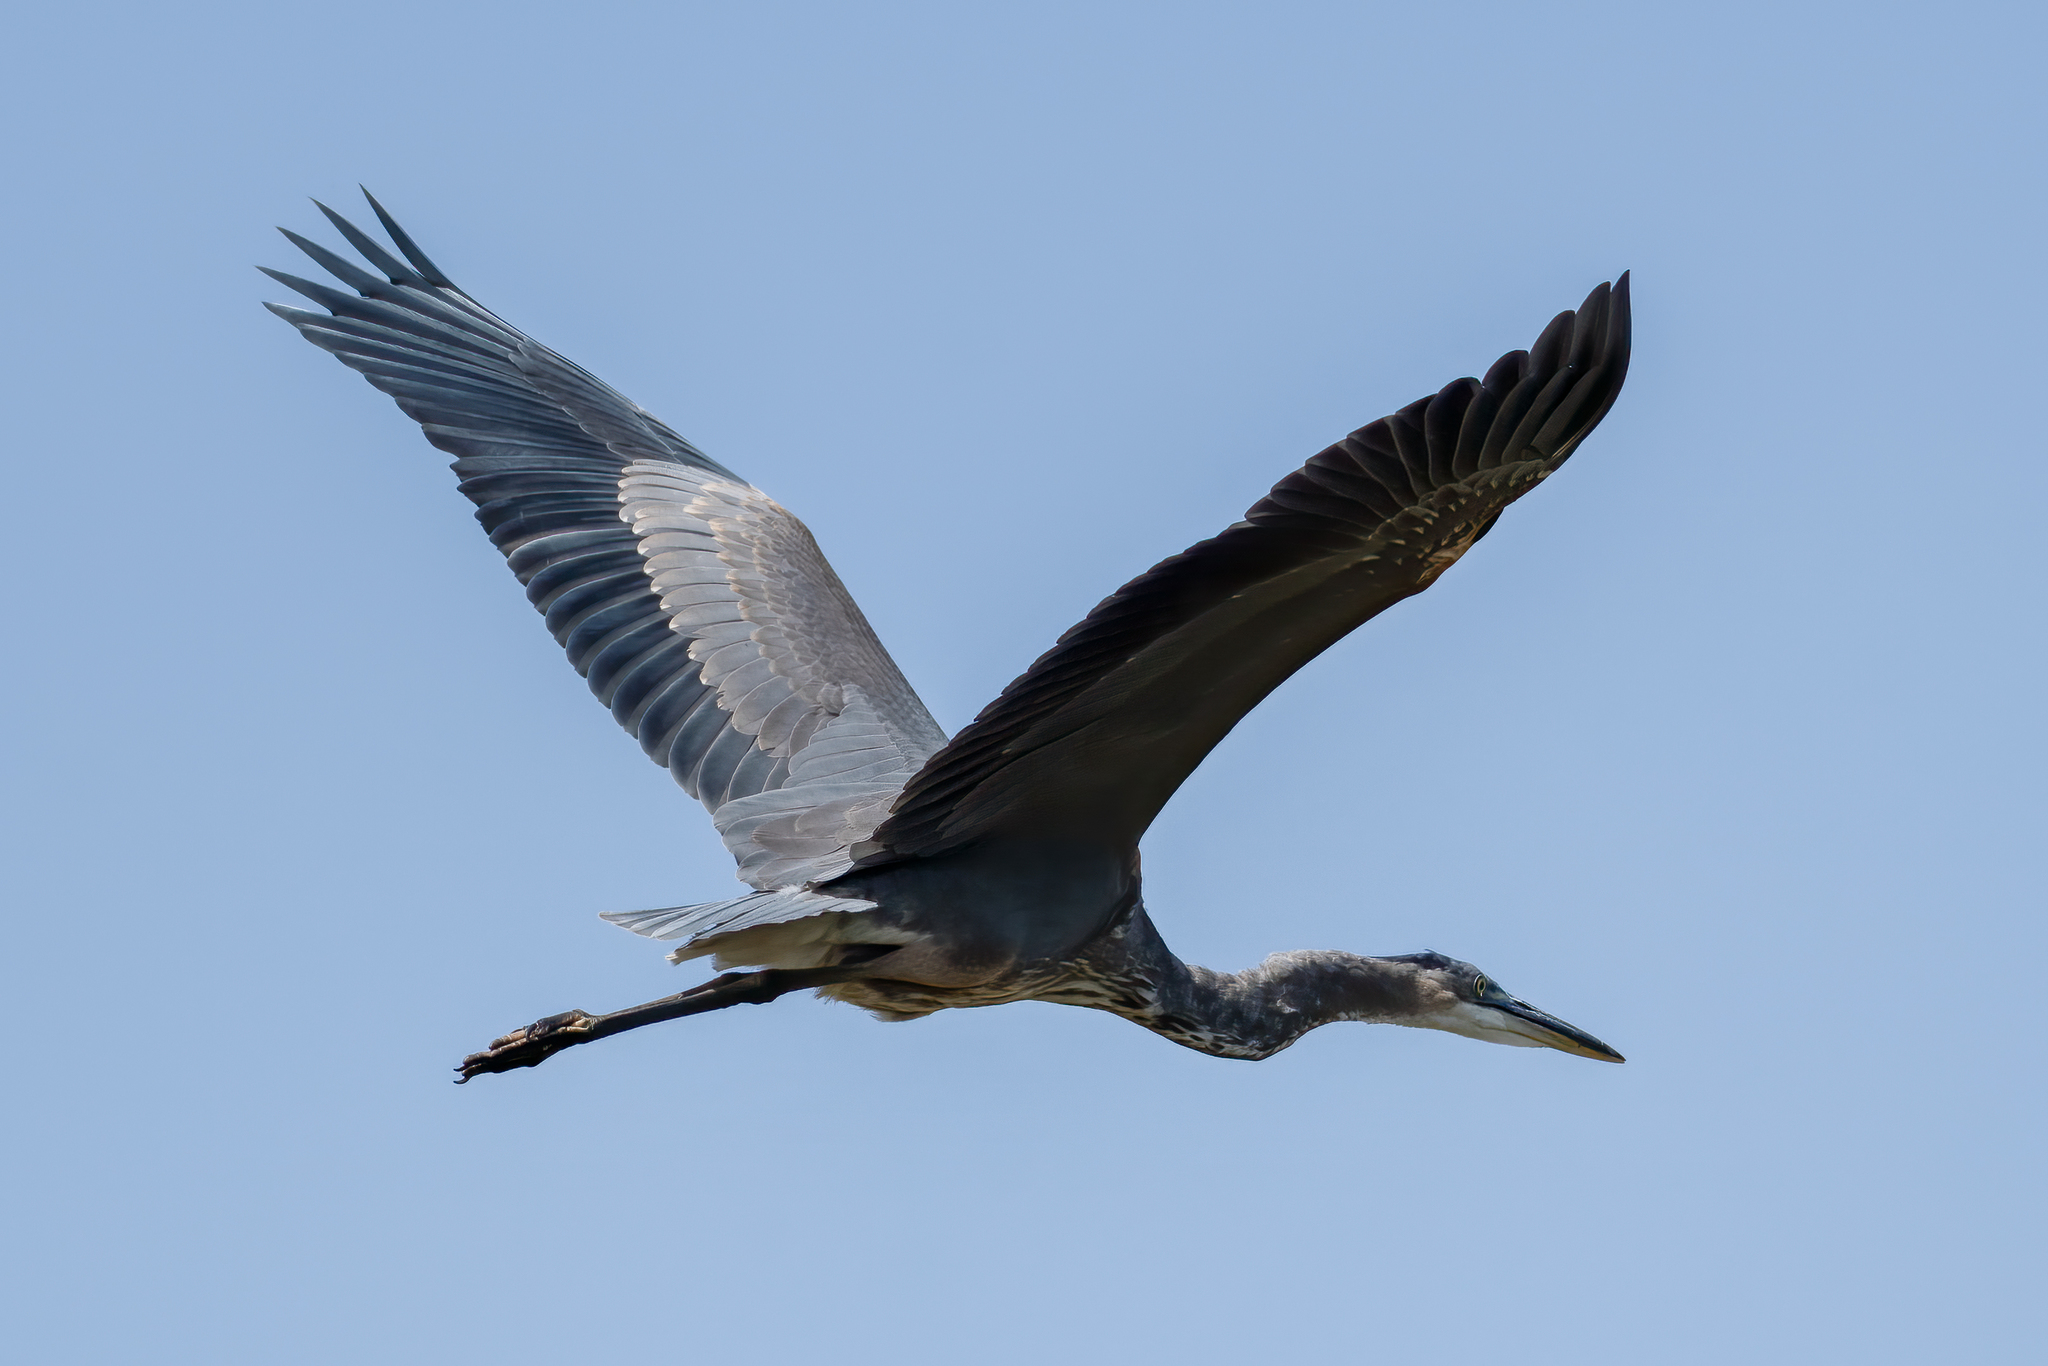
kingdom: Animalia
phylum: Chordata
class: Aves
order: Pelecaniformes
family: Ardeidae
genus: Ardea
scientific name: Ardea herodias
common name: Great blue heron
